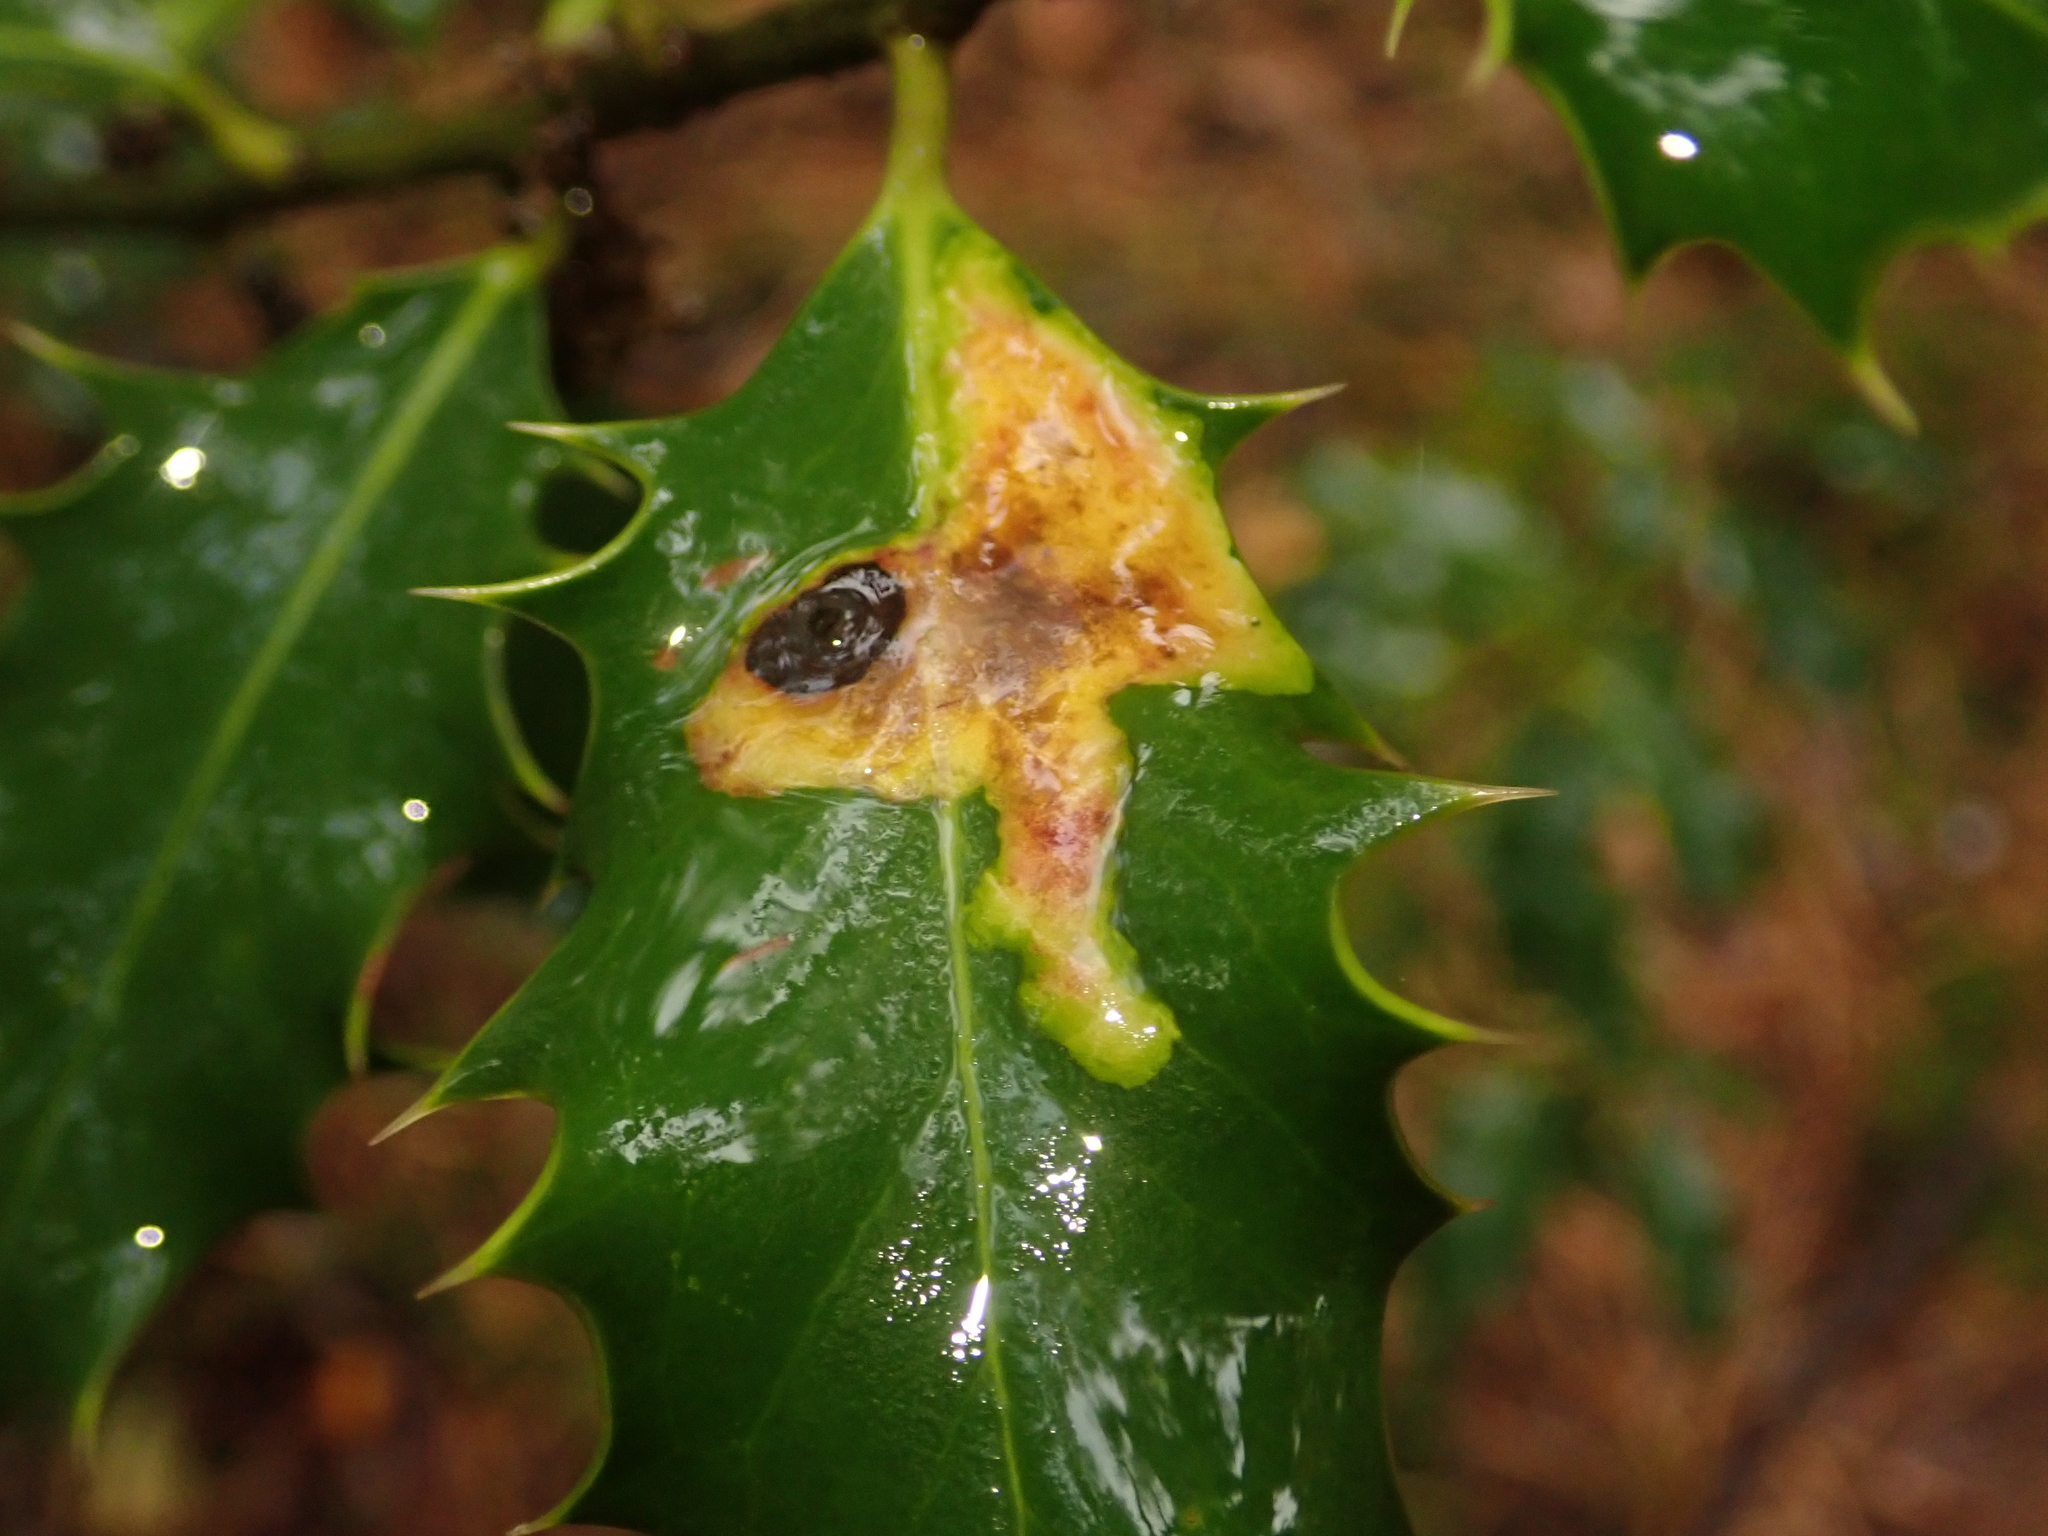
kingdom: Animalia
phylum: Arthropoda
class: Insecta
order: Diptera
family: Agromyzidae
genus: Phytomyza
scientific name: Phytomyza ilicis
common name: Holly leafminer
